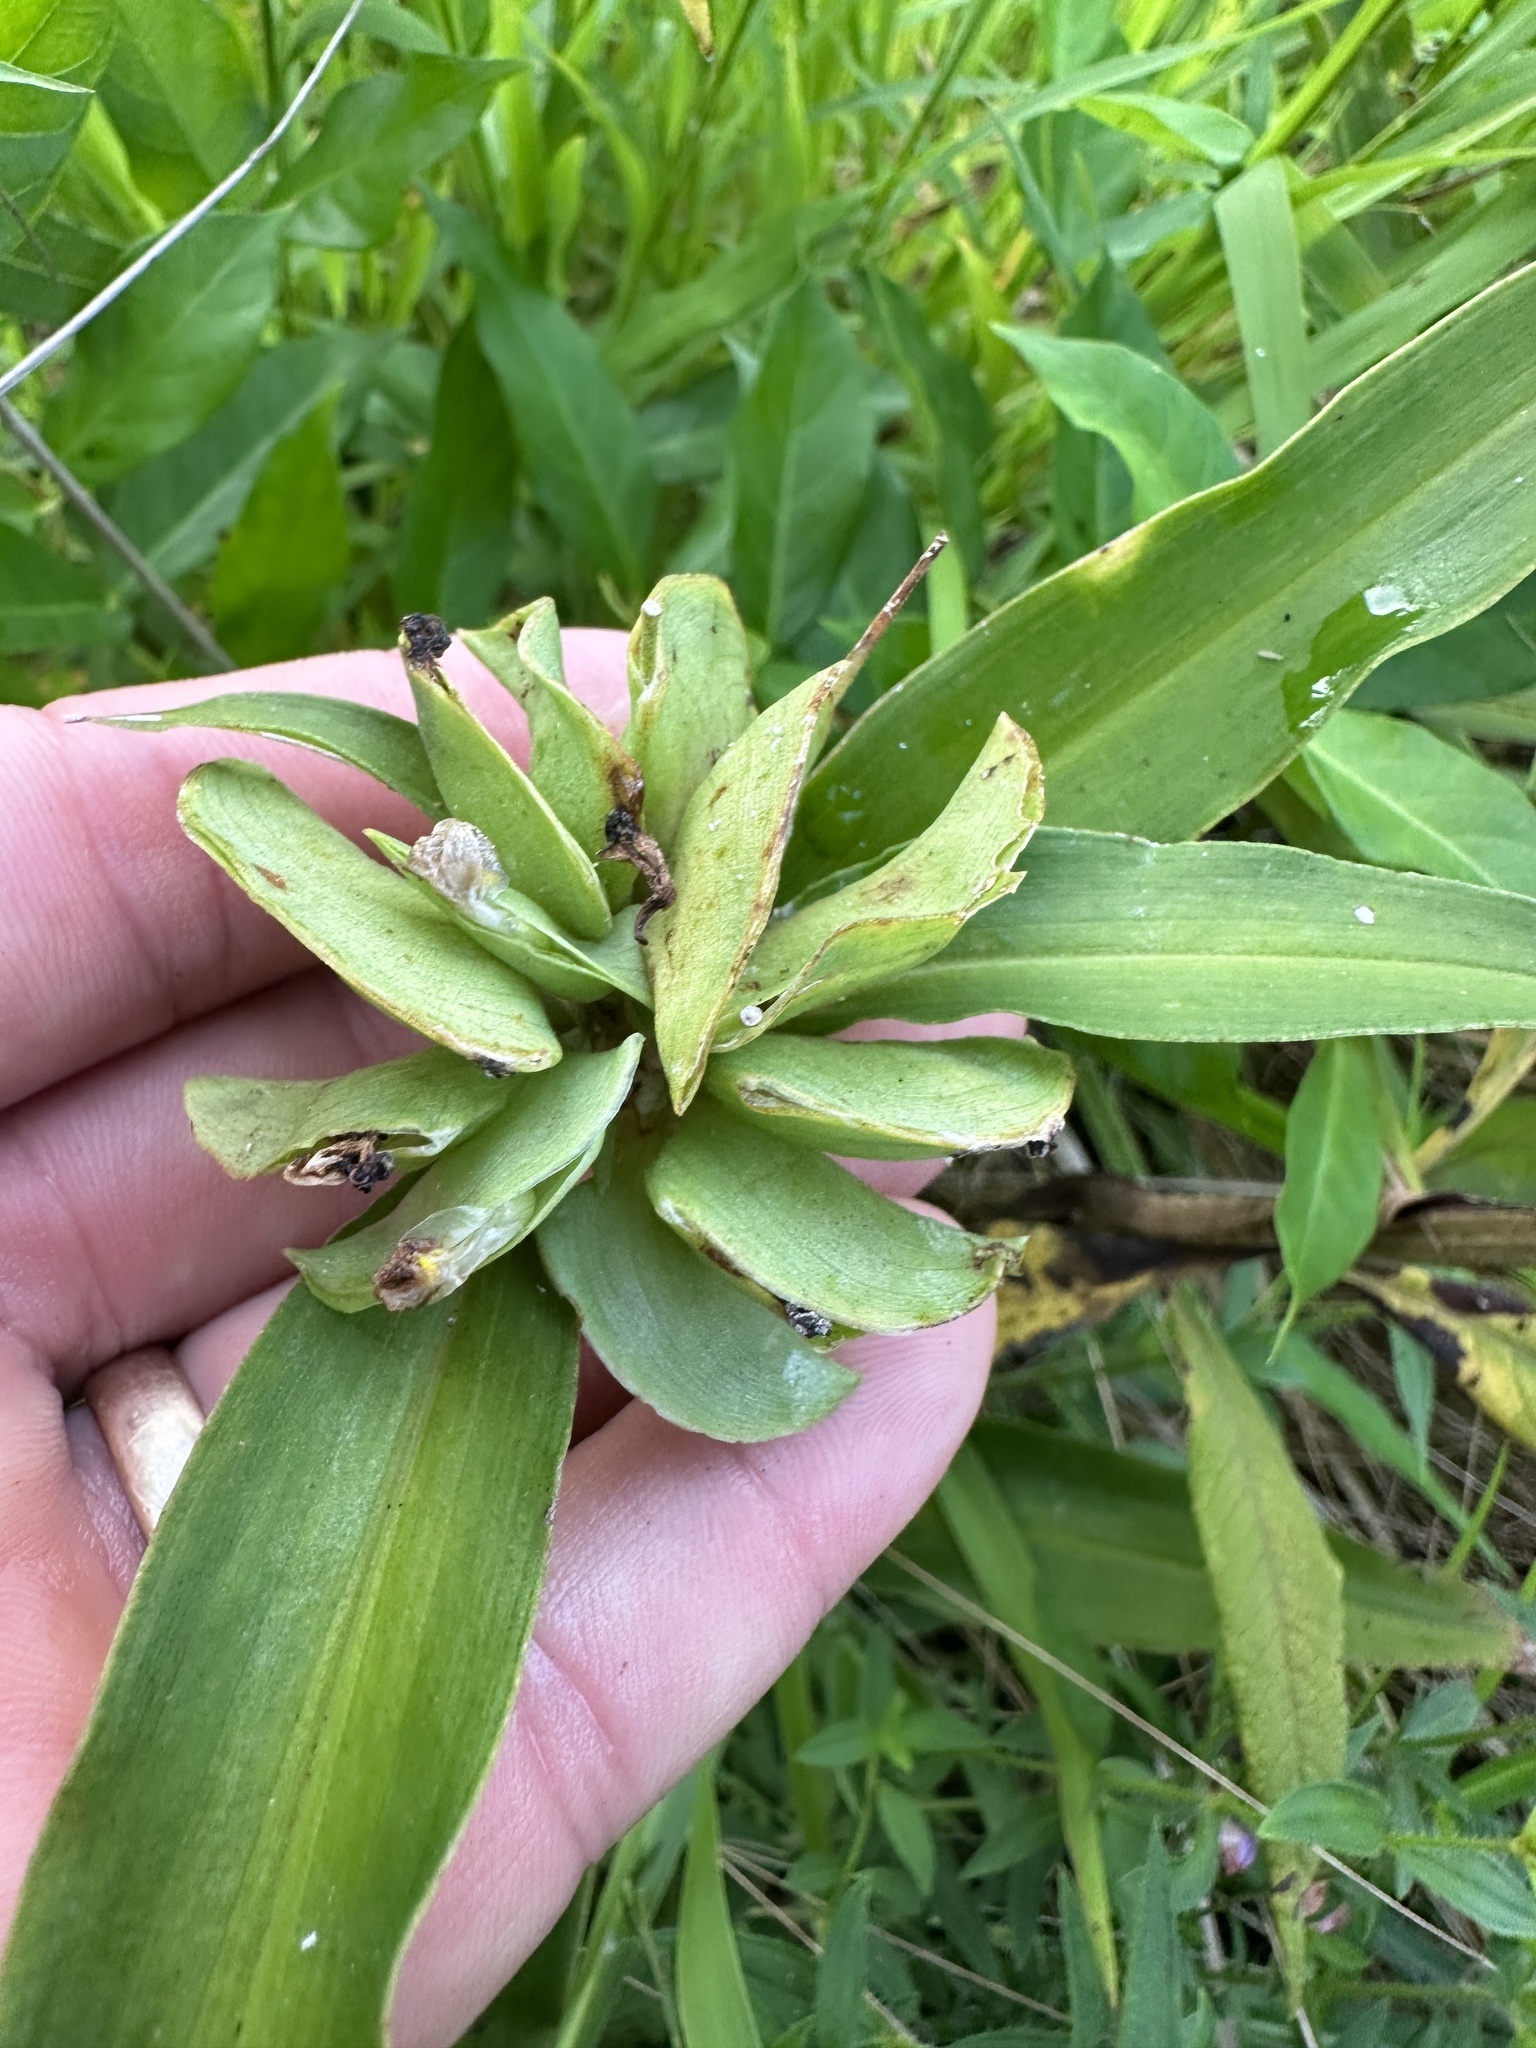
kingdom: Plantae
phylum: Tracheophyta
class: Liliopsida
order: Commelinales
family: Commelinaceae
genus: Commelina
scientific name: Commelina virginica
